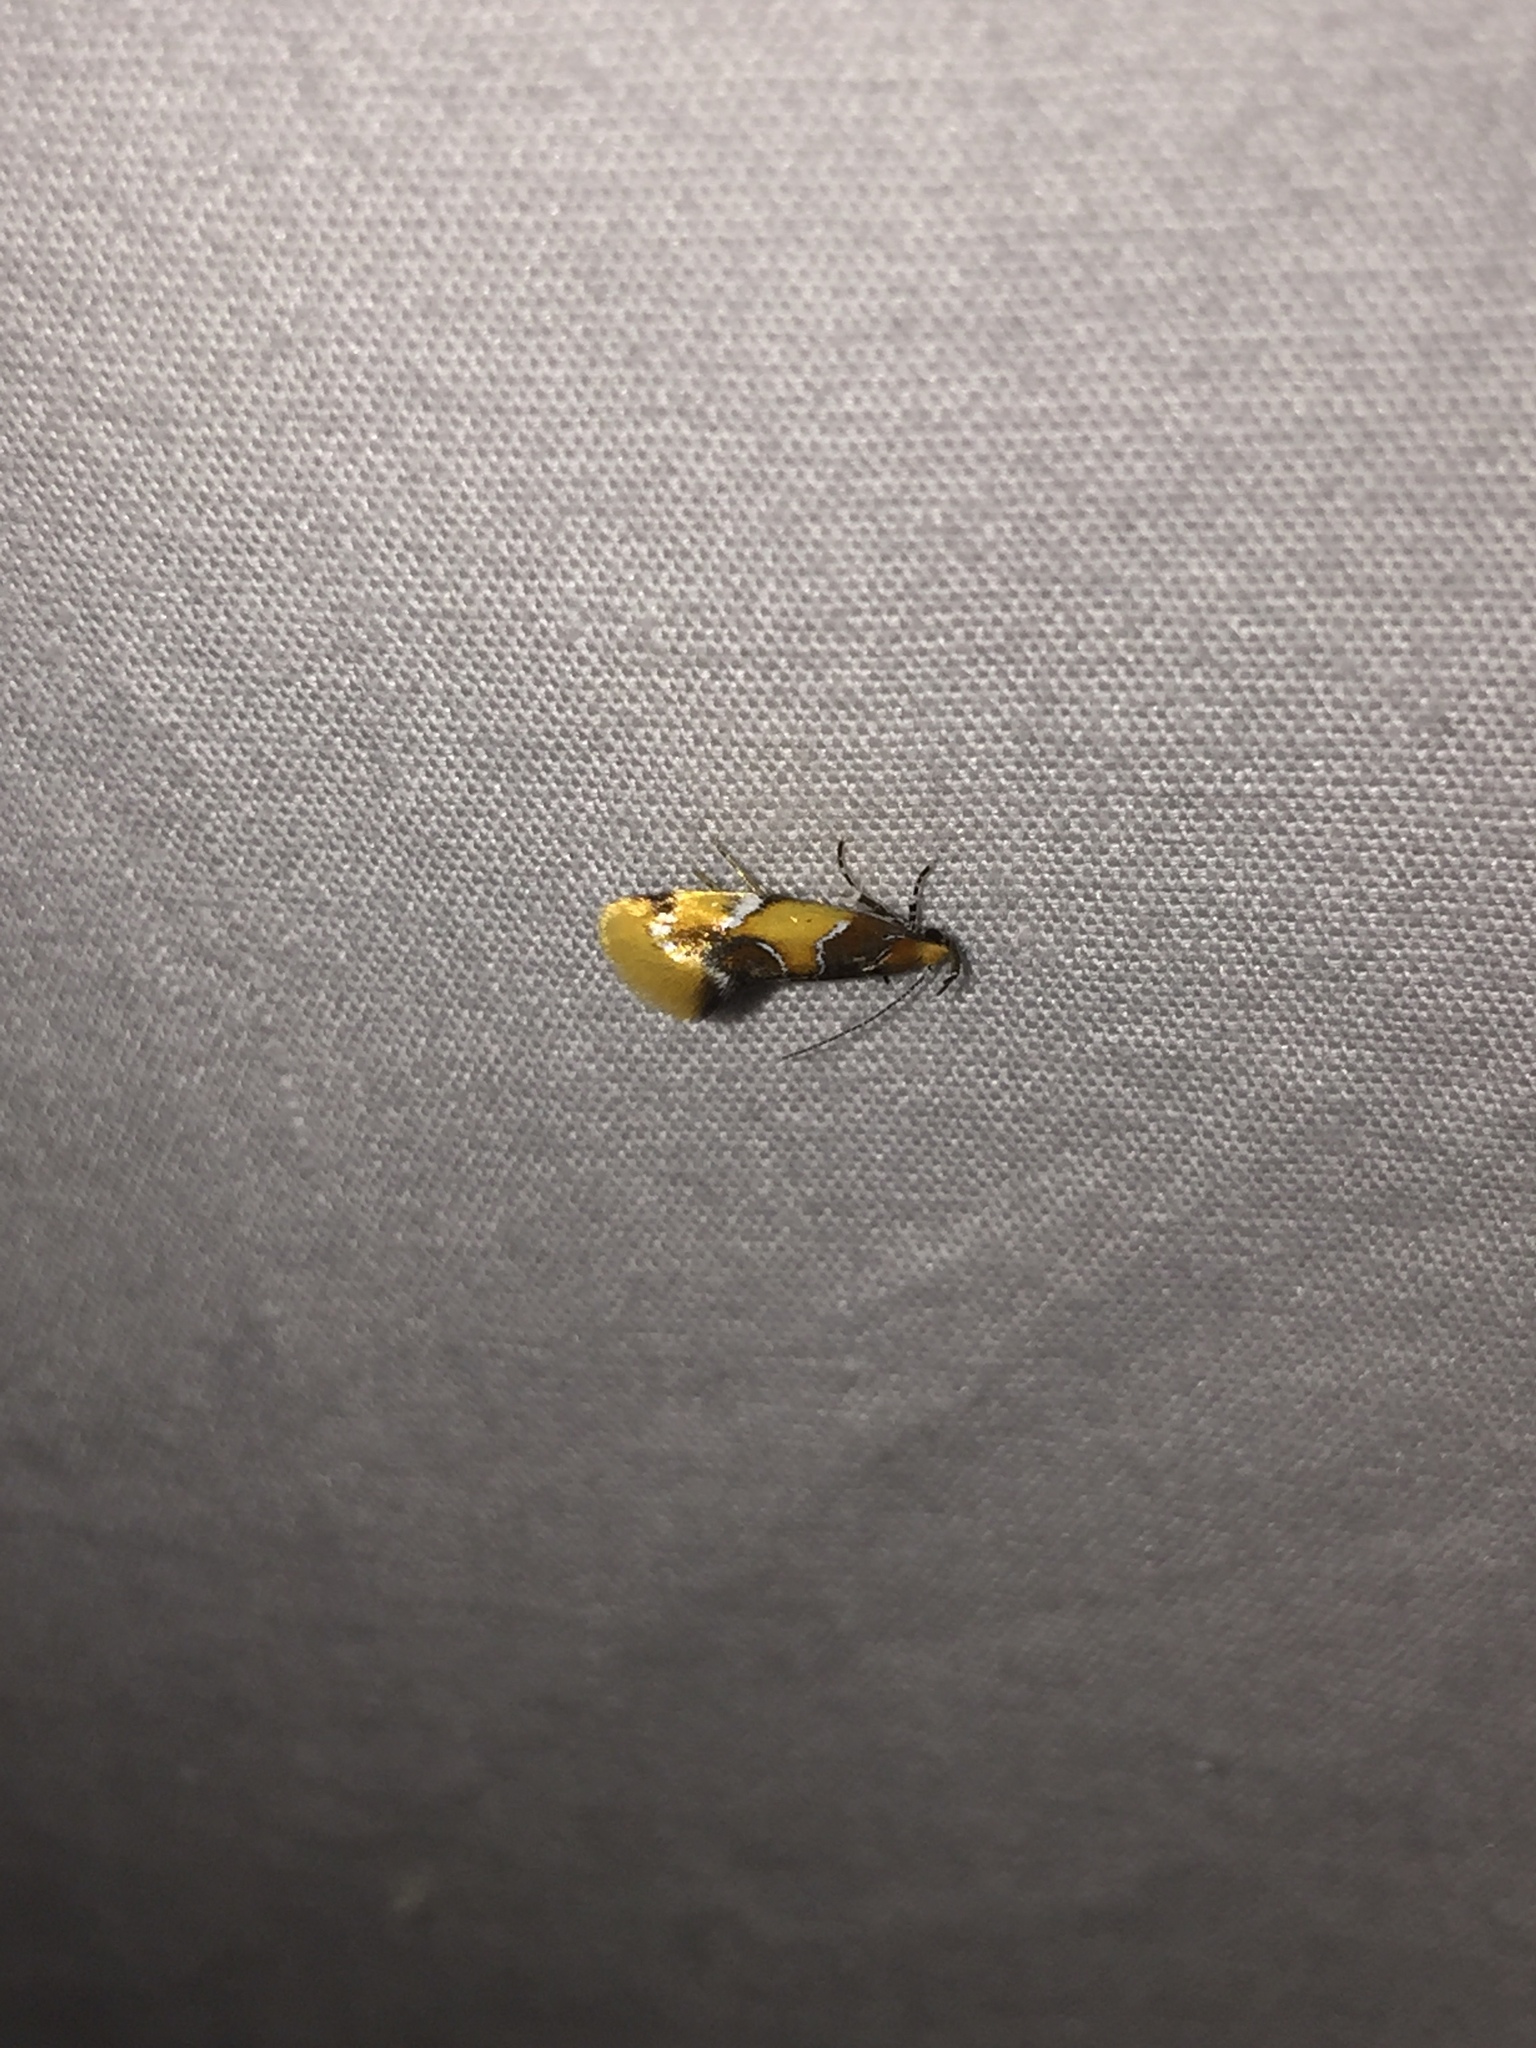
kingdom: Animalia
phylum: Arthropoda
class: Insecta
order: Lepidoptera
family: Oecophoridae
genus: Callima
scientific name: Callima argenticinctella
